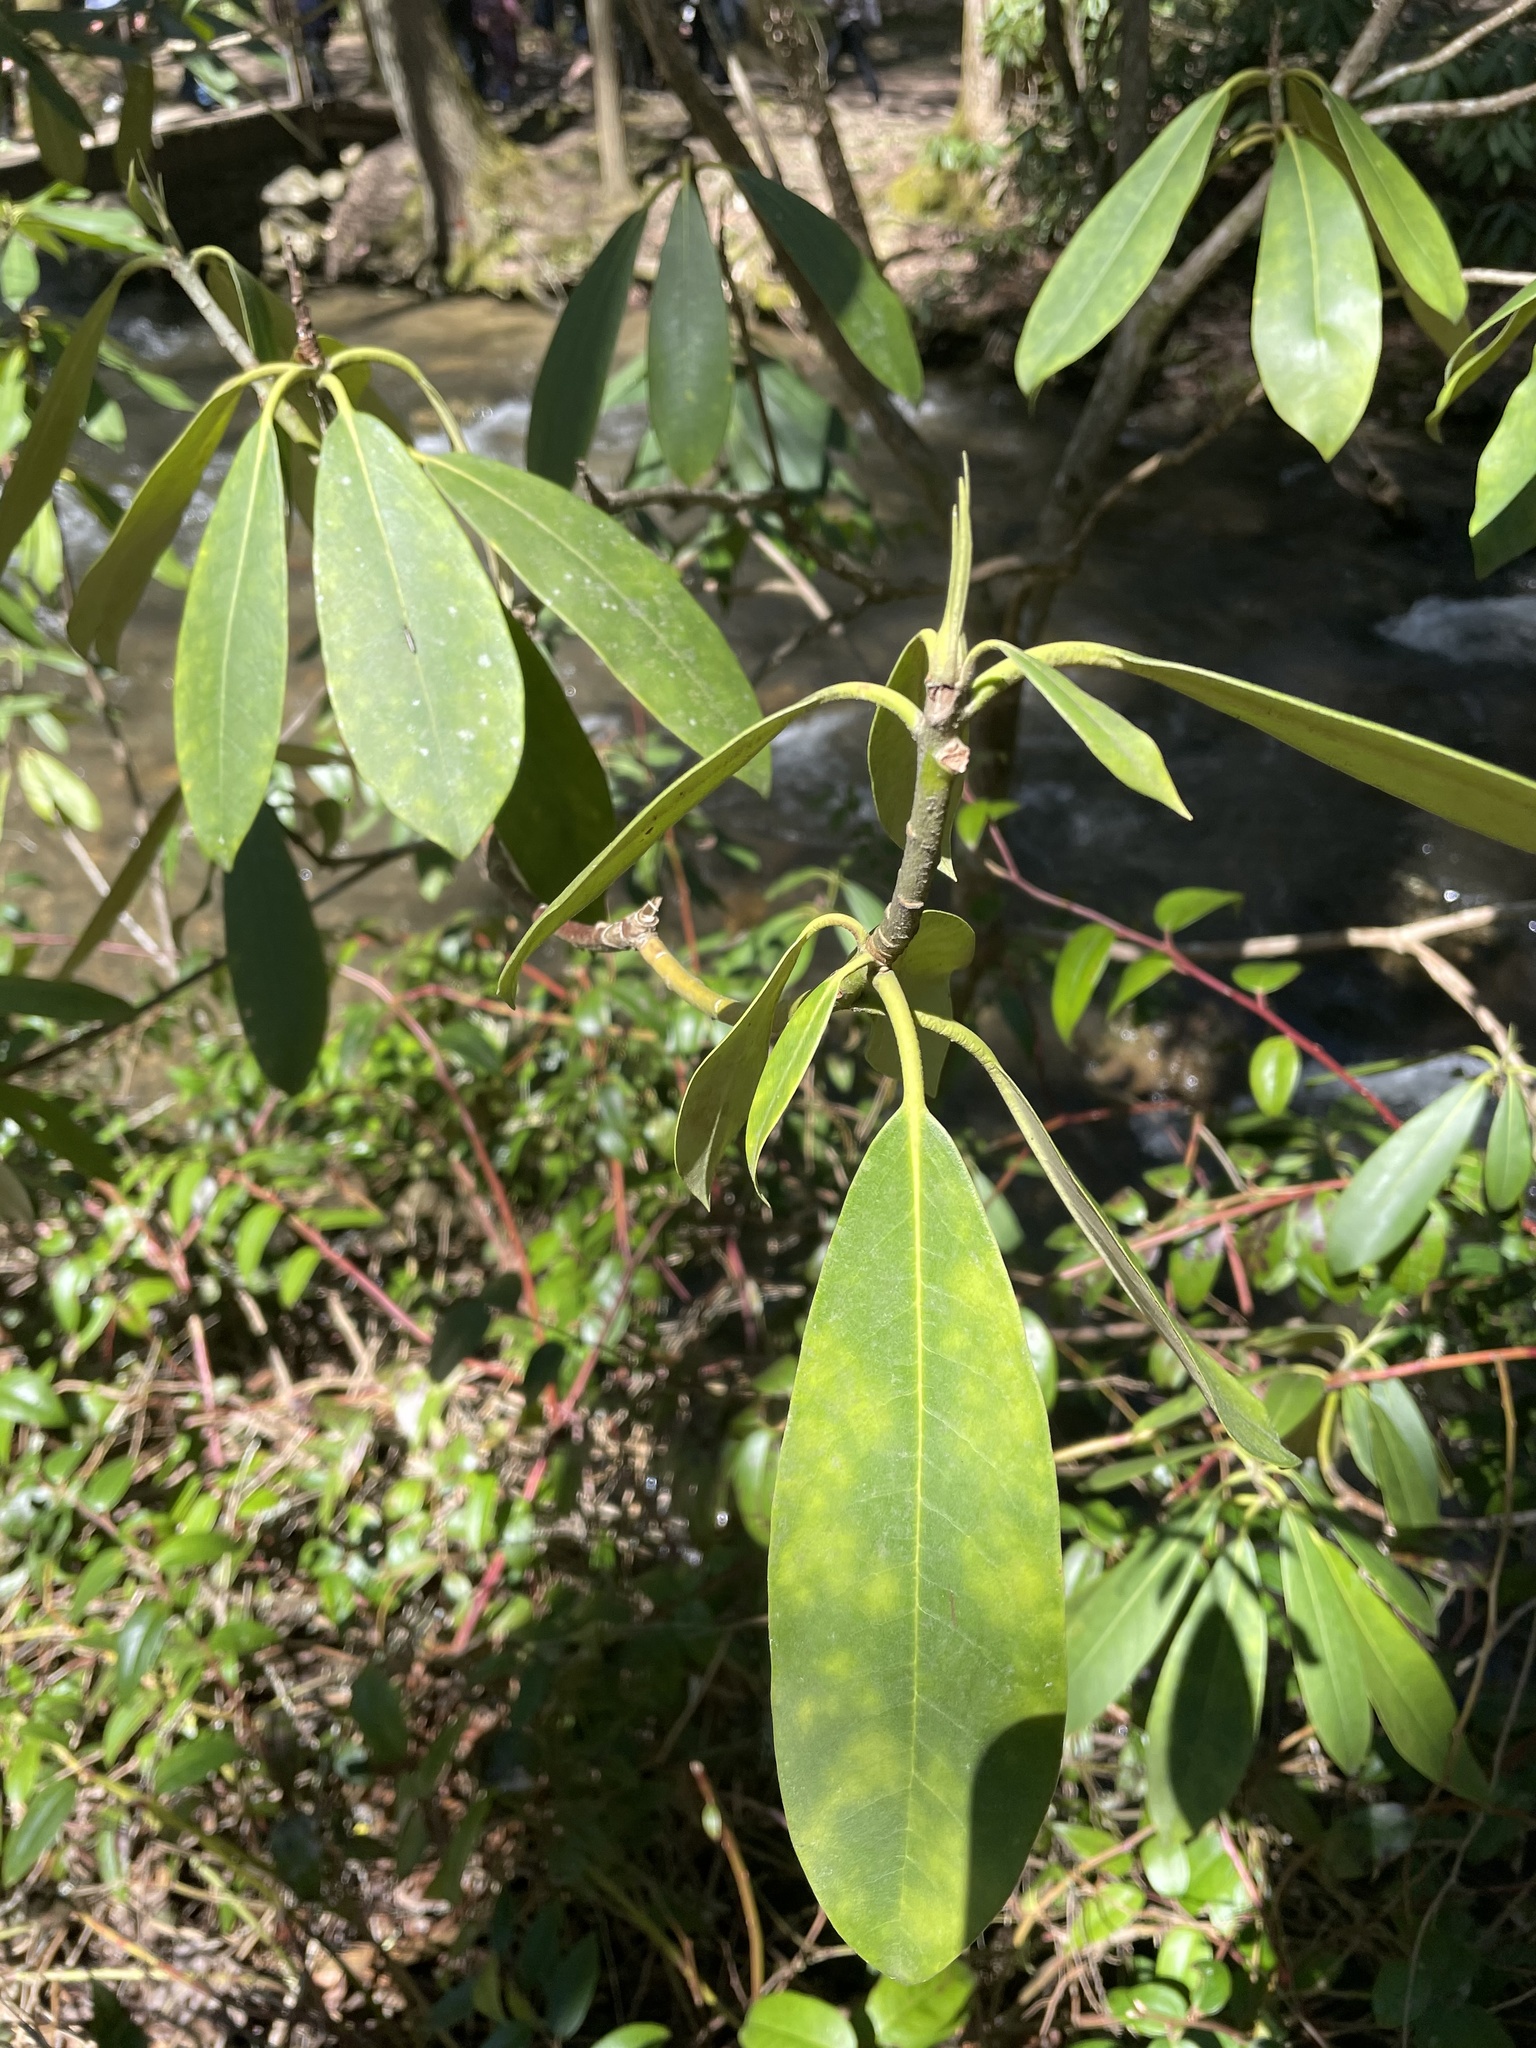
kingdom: Plantae
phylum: Tracheophyta
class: Magnoliopsida
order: Ericales
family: Ericaceae
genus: Rhododendron
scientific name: Rhododendron maximum
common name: Great rhododendron
